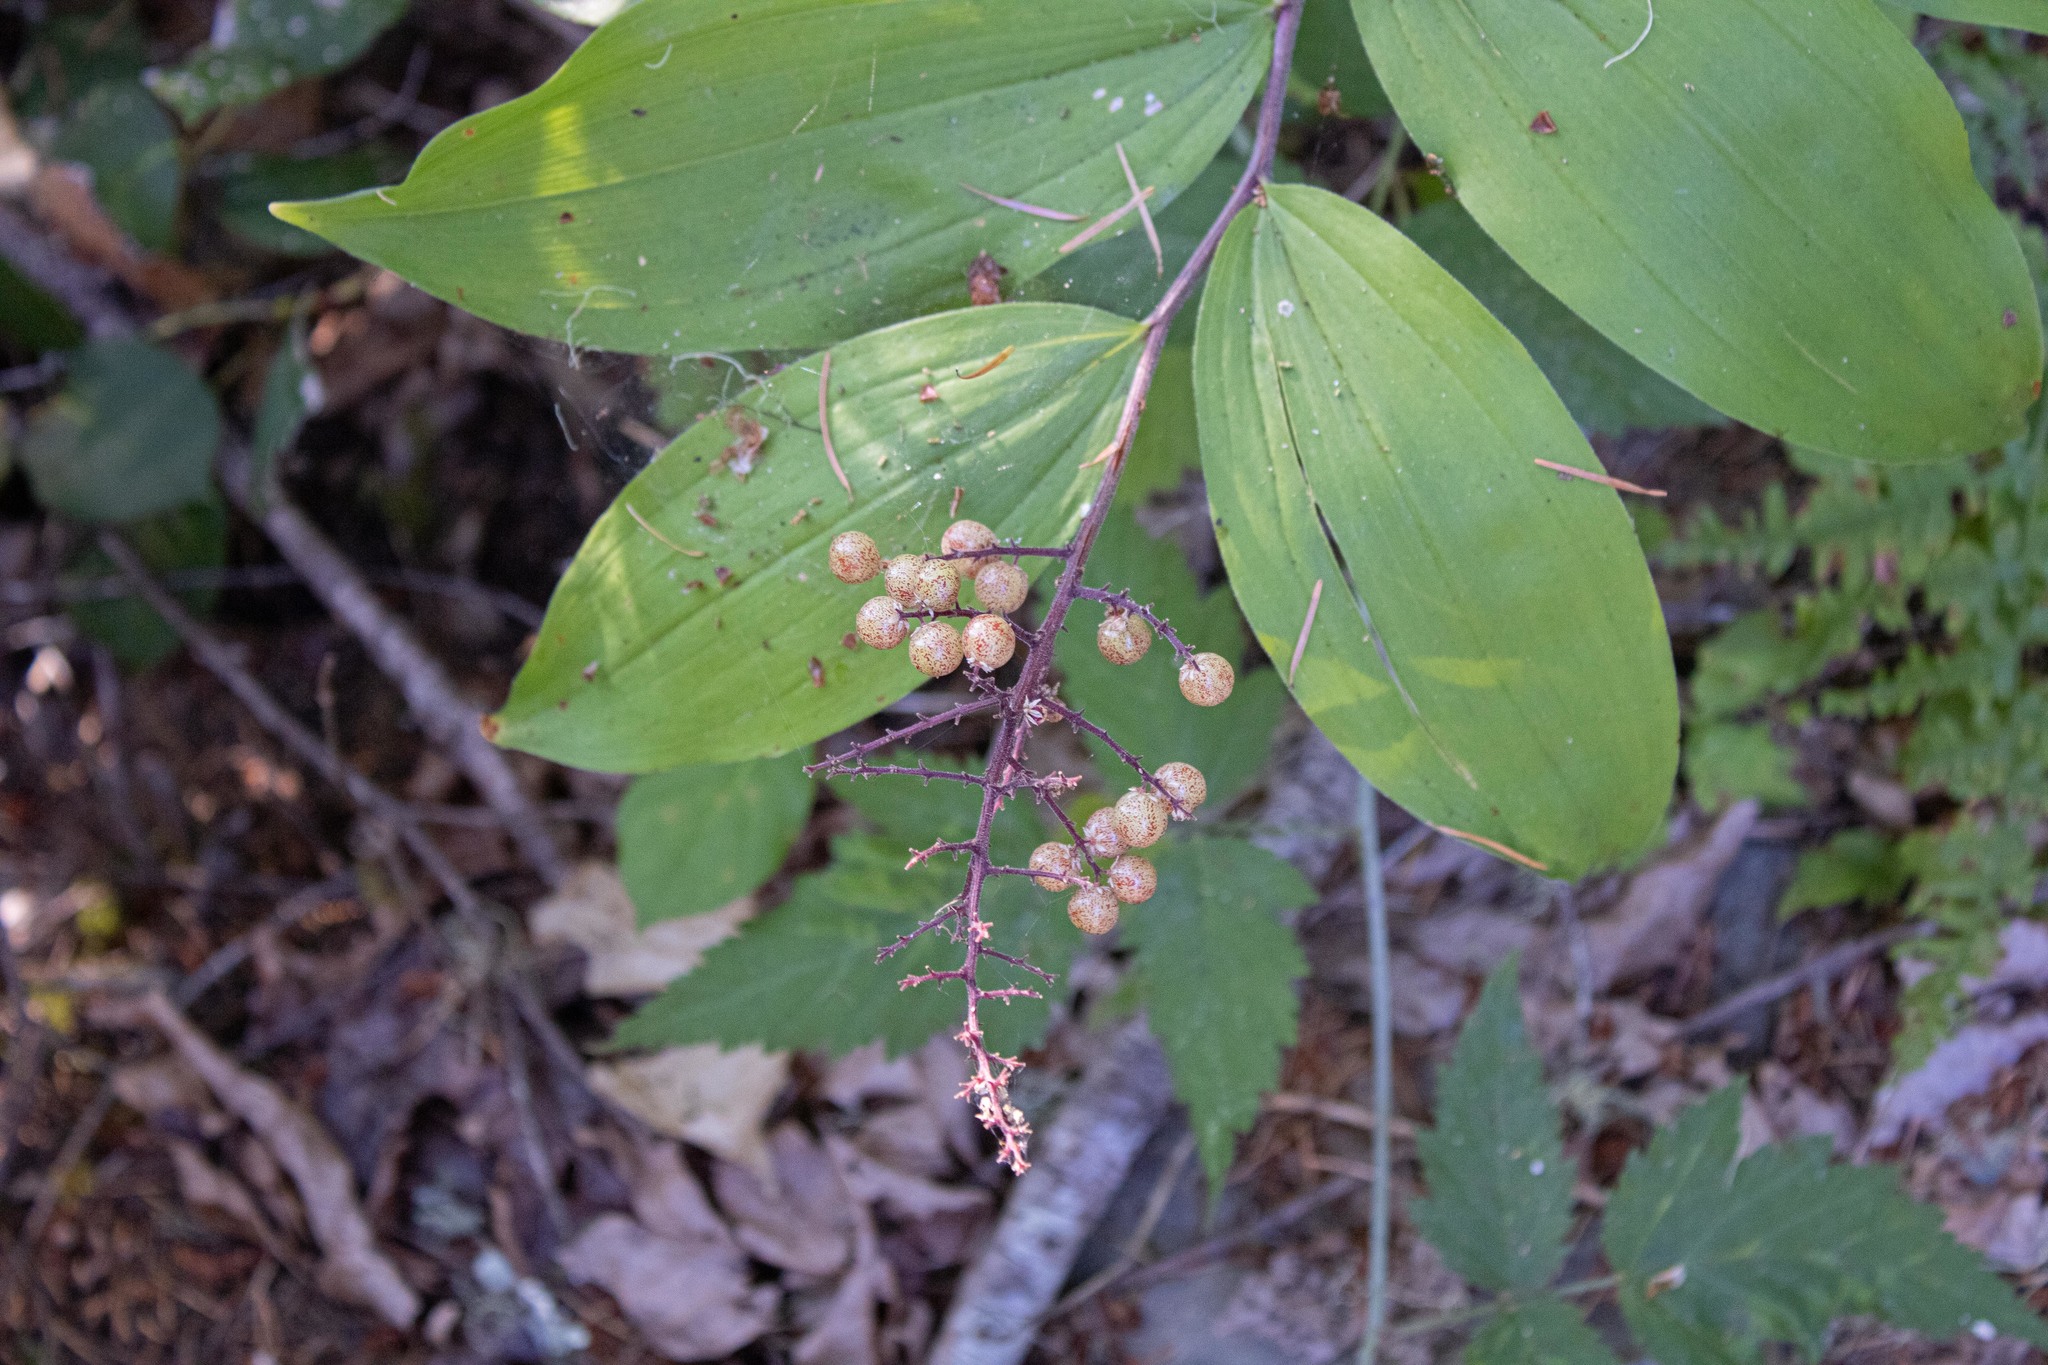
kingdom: Plantae
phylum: Tracheophyta
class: Liliopsida
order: Asparagales
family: Asparagaceae
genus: Maianthemum
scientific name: Maianthemum racemosum
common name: False spikenard
